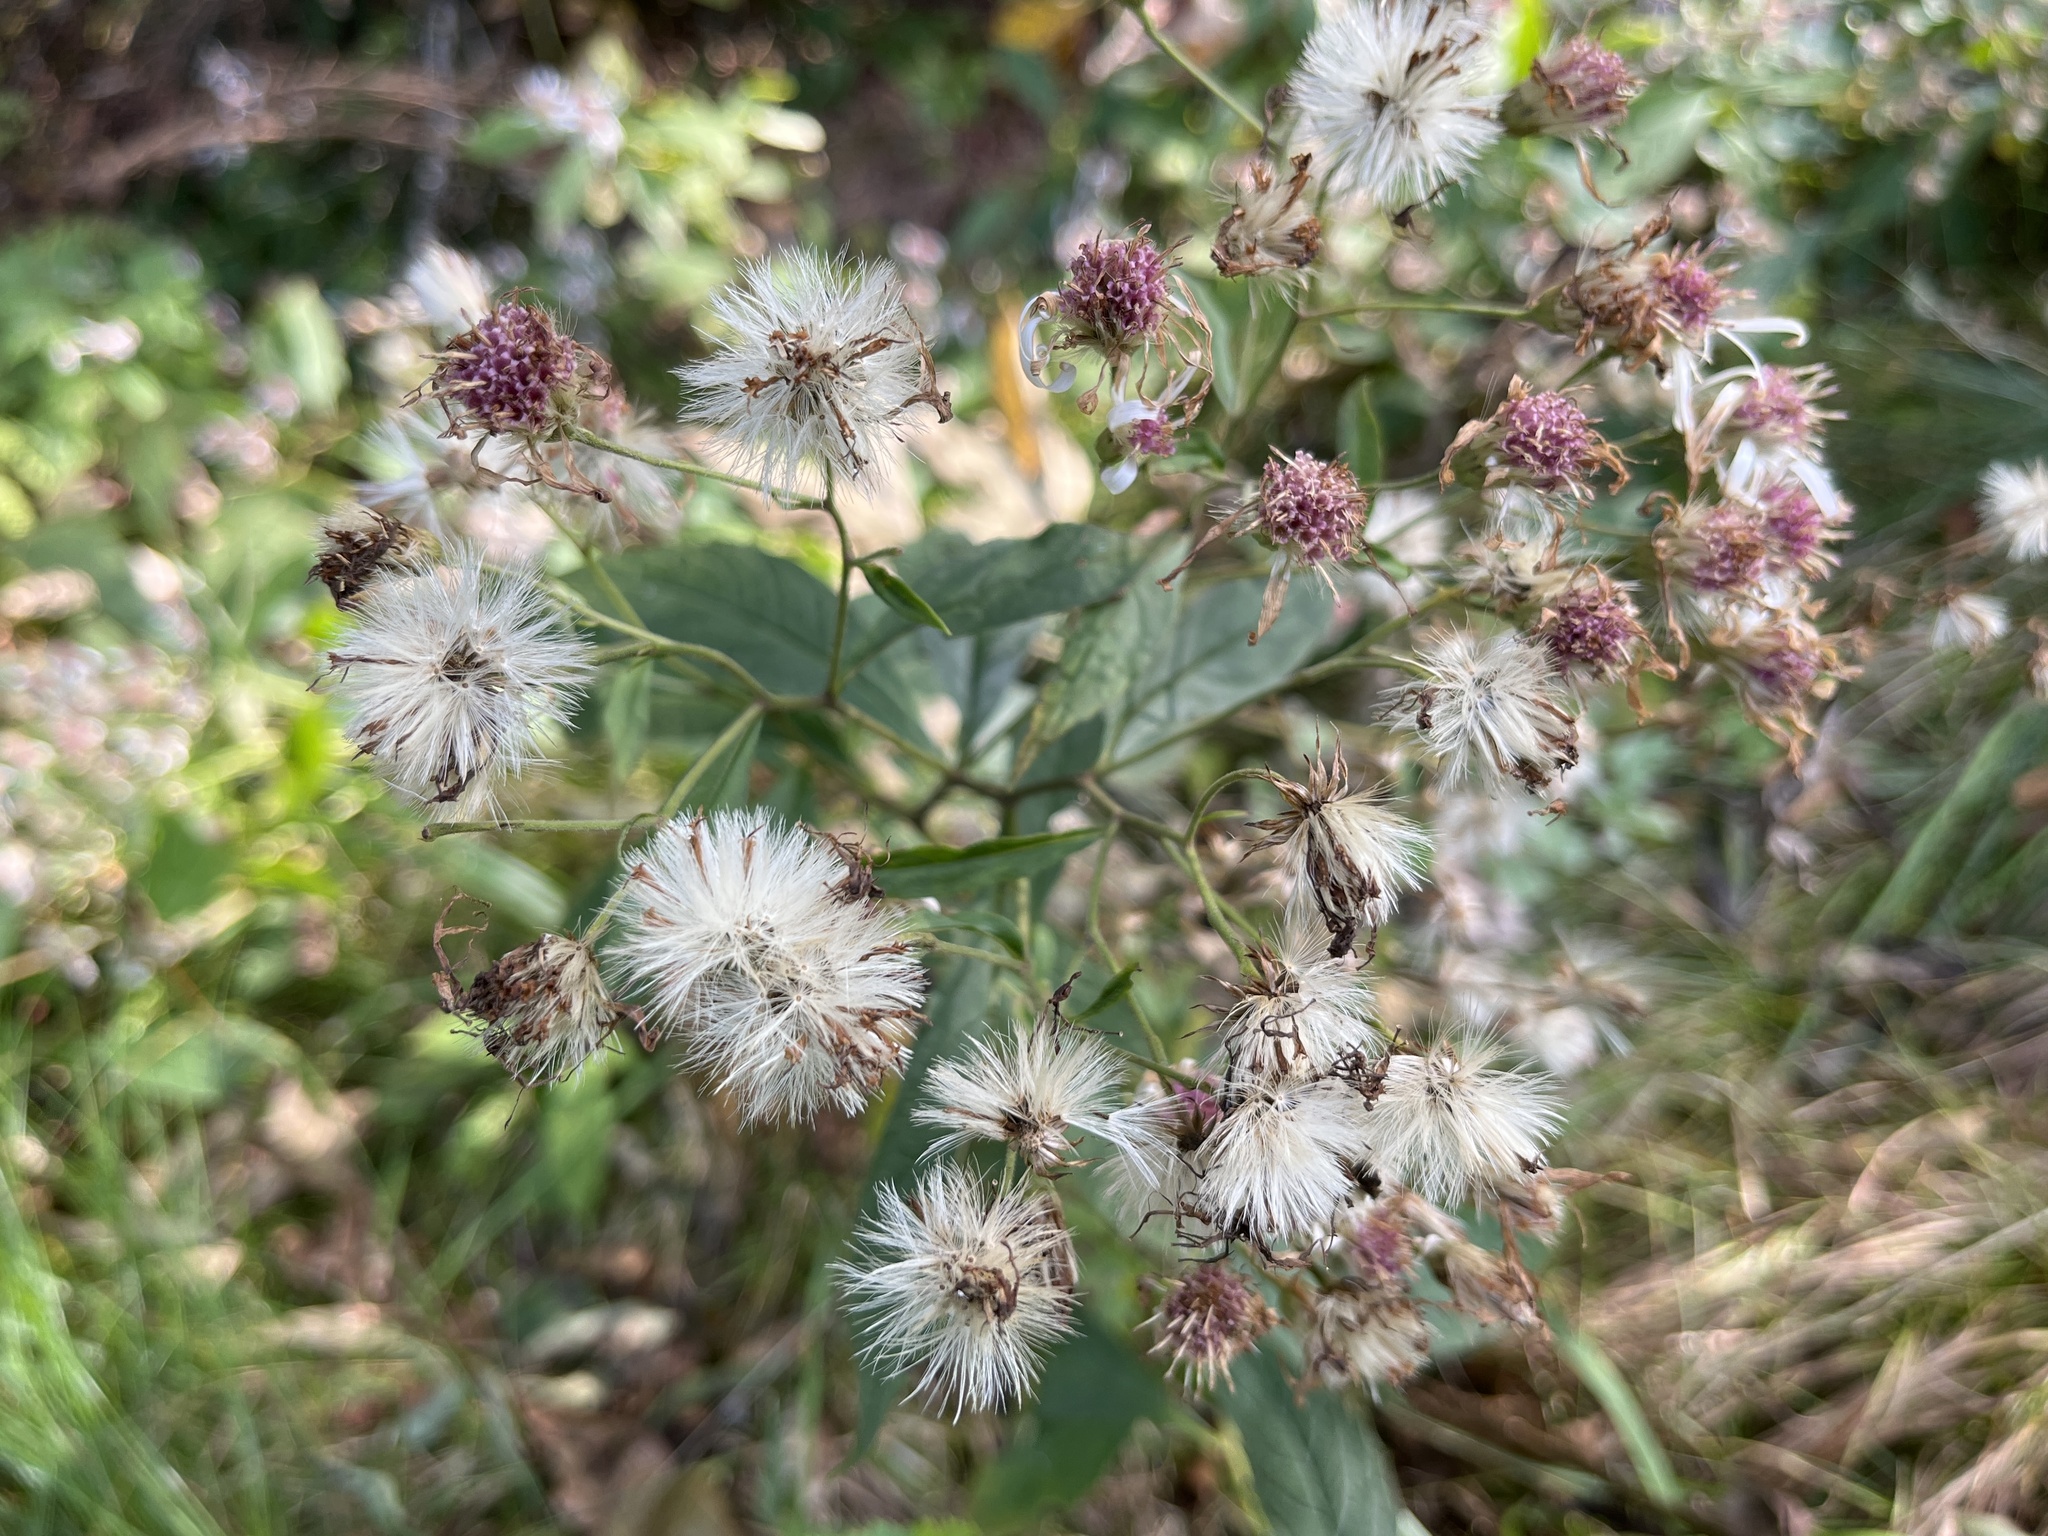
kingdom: Plantae
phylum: Tracheophyta
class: Magnoliopsida
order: Asterales
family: Asteraceae
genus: Oclemena
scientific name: Oclemena acuminata
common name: Mountain aster
